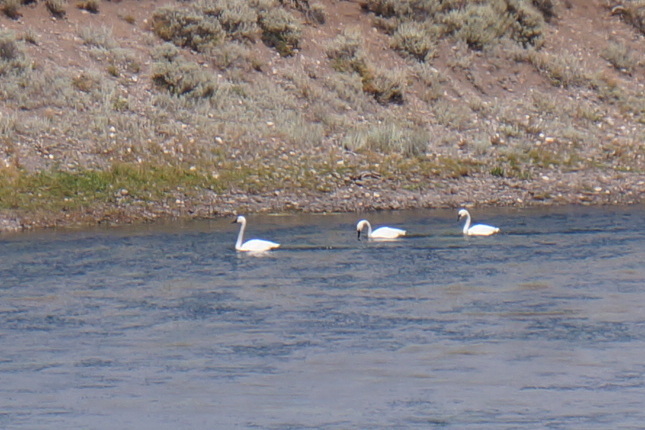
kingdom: Animalia
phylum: Chordata
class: Aves
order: Anseriformes
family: Anatidae
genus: Cygnus
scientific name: Cygnus buccinator
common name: Trumpeter swan
